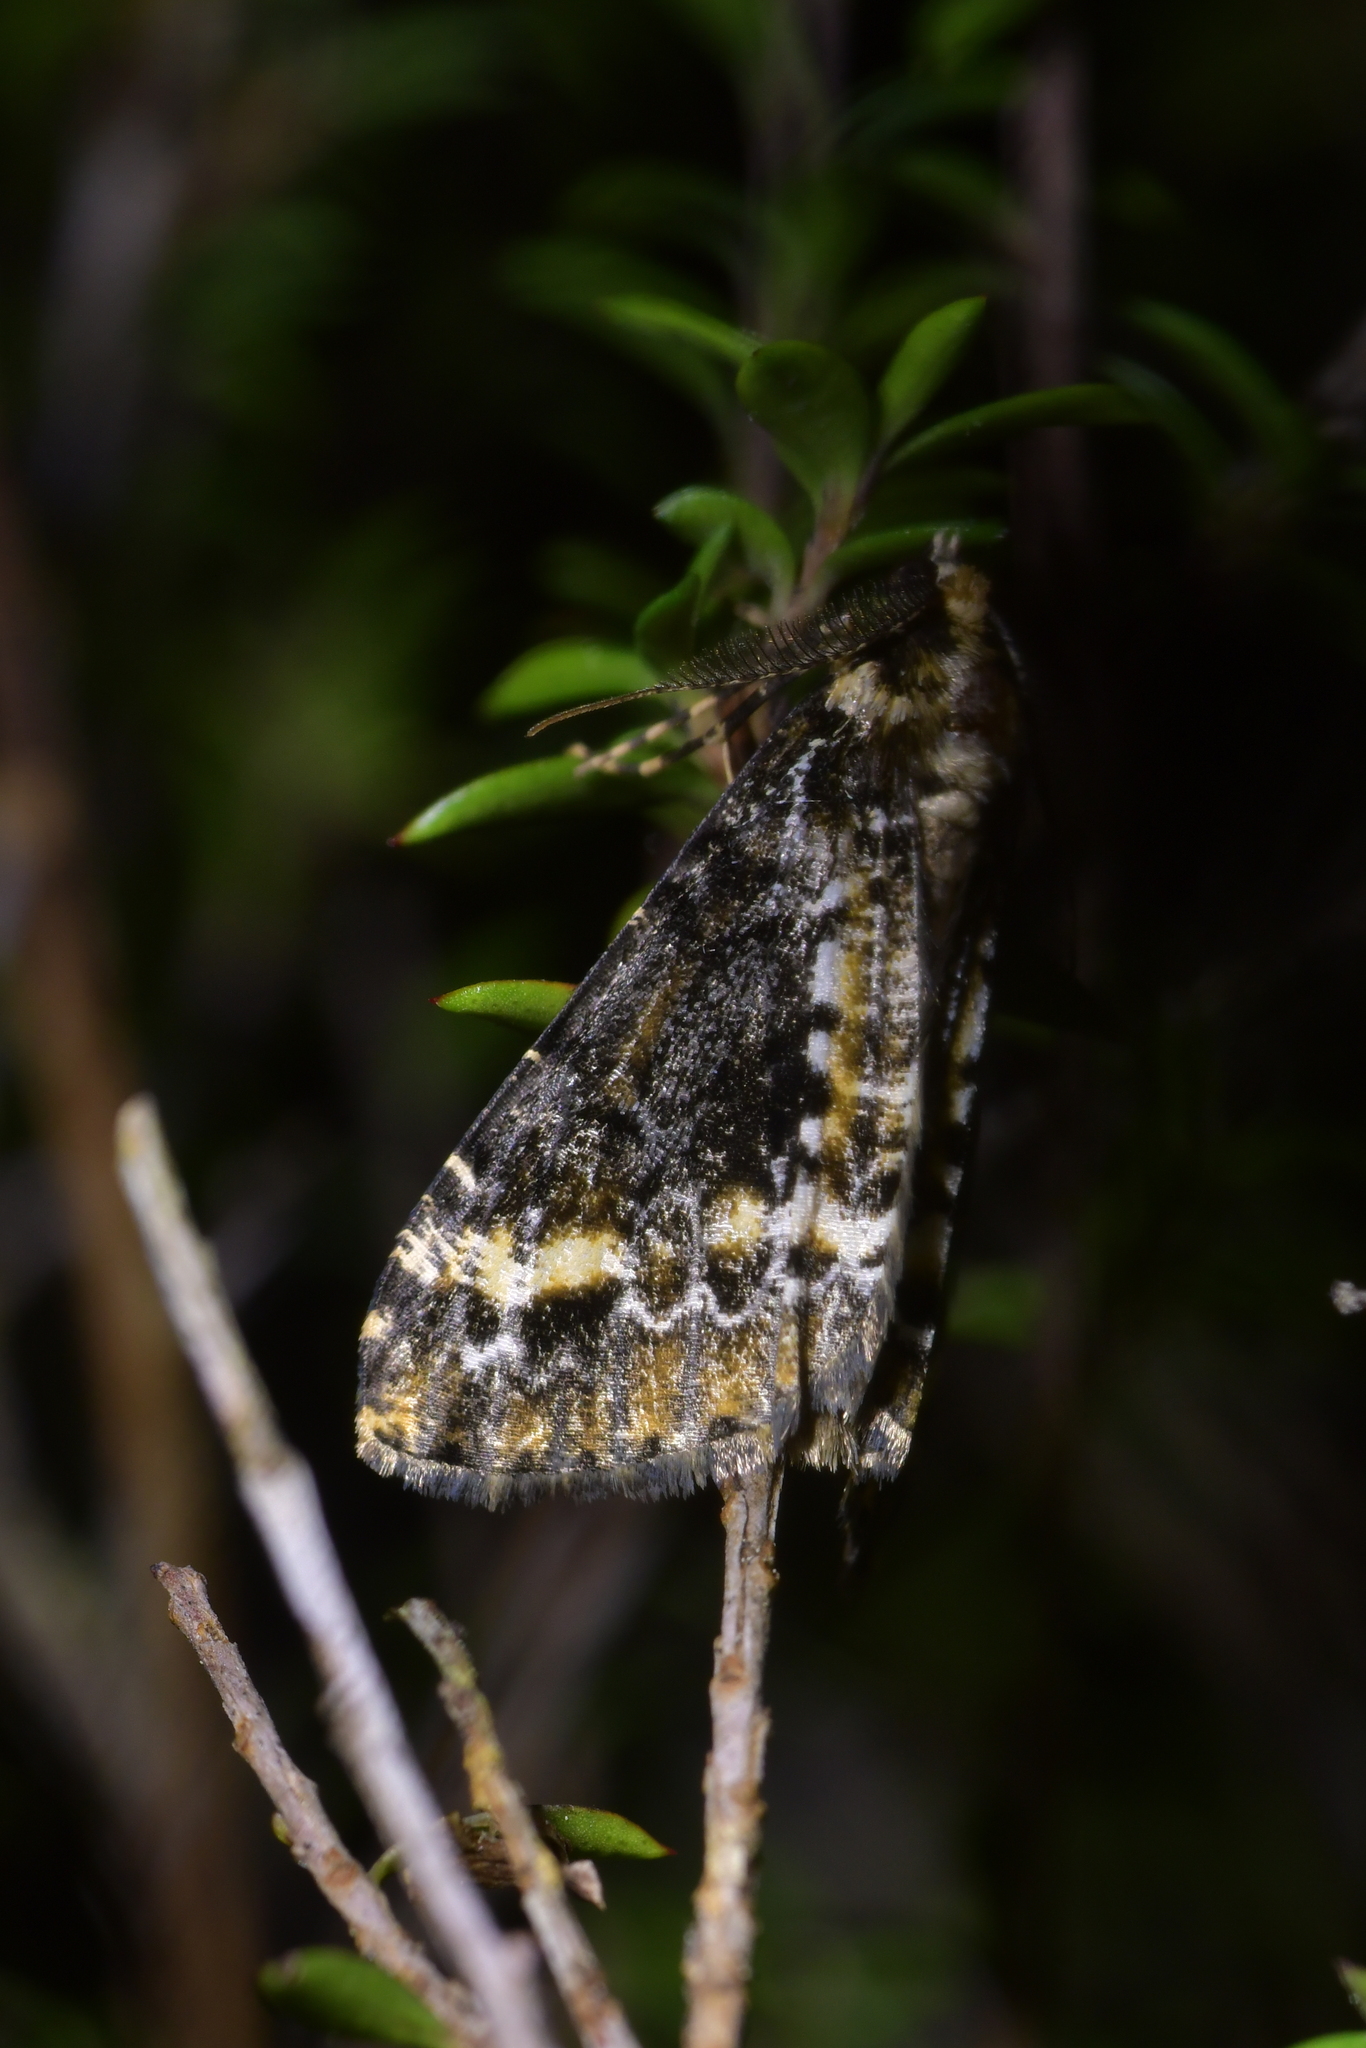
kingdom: Animalia
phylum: Arthropoda
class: Insecta
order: Lepidoptera
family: Geometridae
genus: Pseudocoremia
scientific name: Pseudocoremia leucelaea
